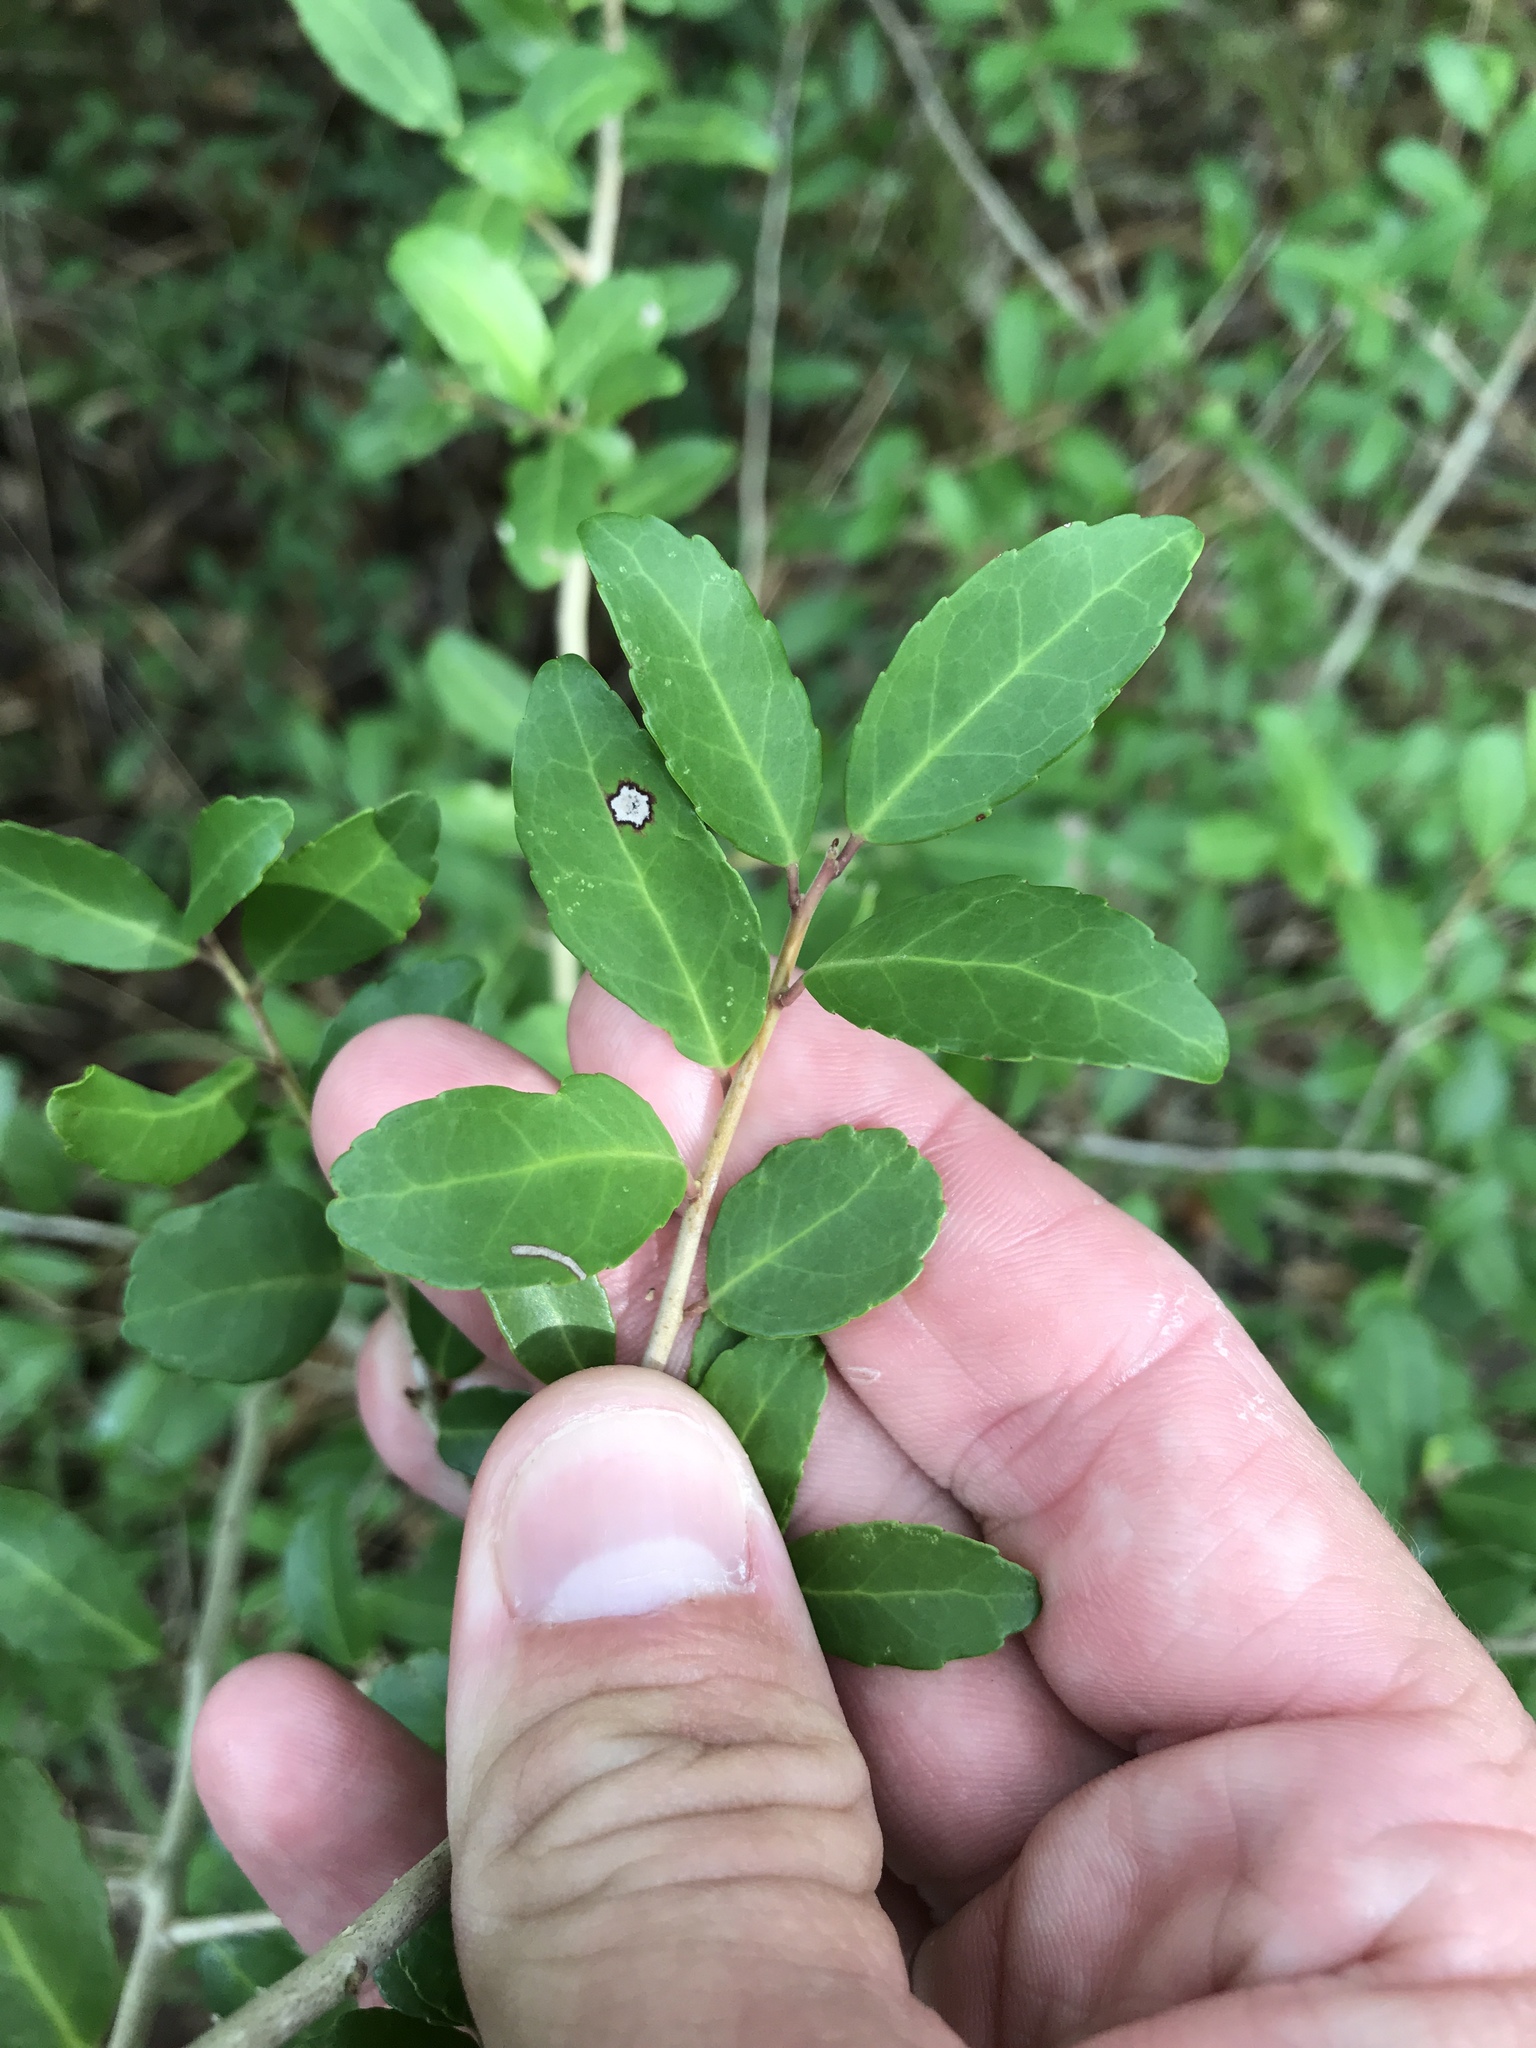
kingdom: Plantae
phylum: Tracheophyta
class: Magnoliopsida
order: Aquifoliales
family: Aquifoliaceae
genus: Ilex
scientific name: Ilex vomitoria
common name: Yaupon holly
